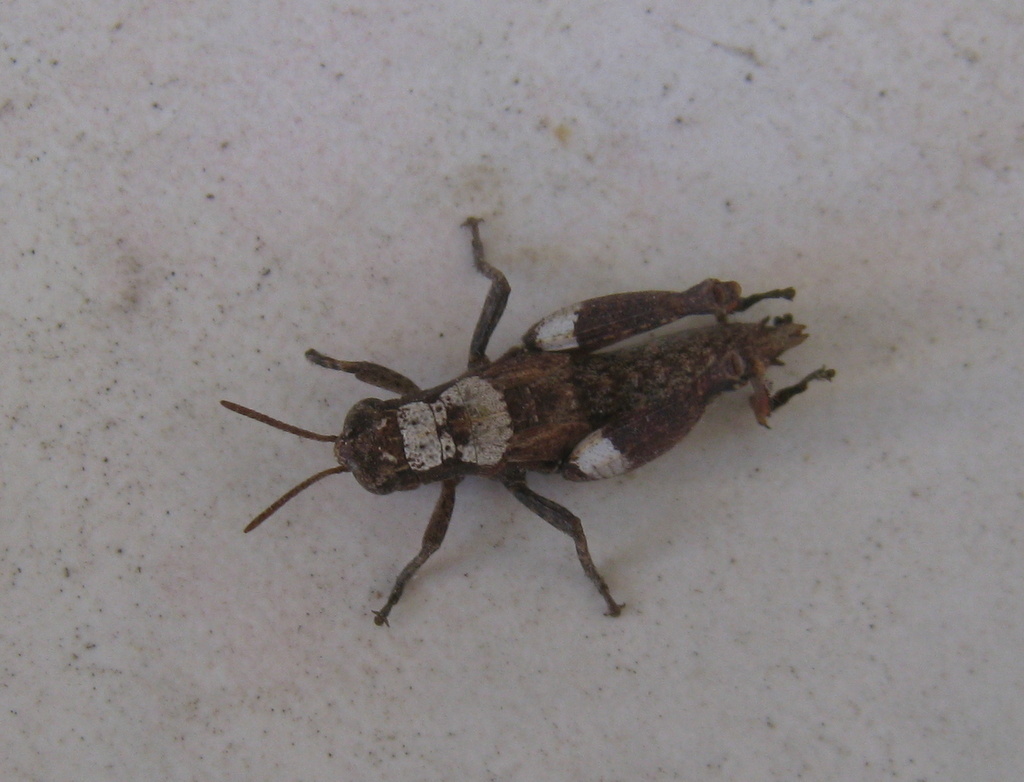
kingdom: Animalia
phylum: Arthropoda
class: Insecta
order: Orthoptera
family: Acrididae
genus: Pezotettix
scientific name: Pezotettix giornae
